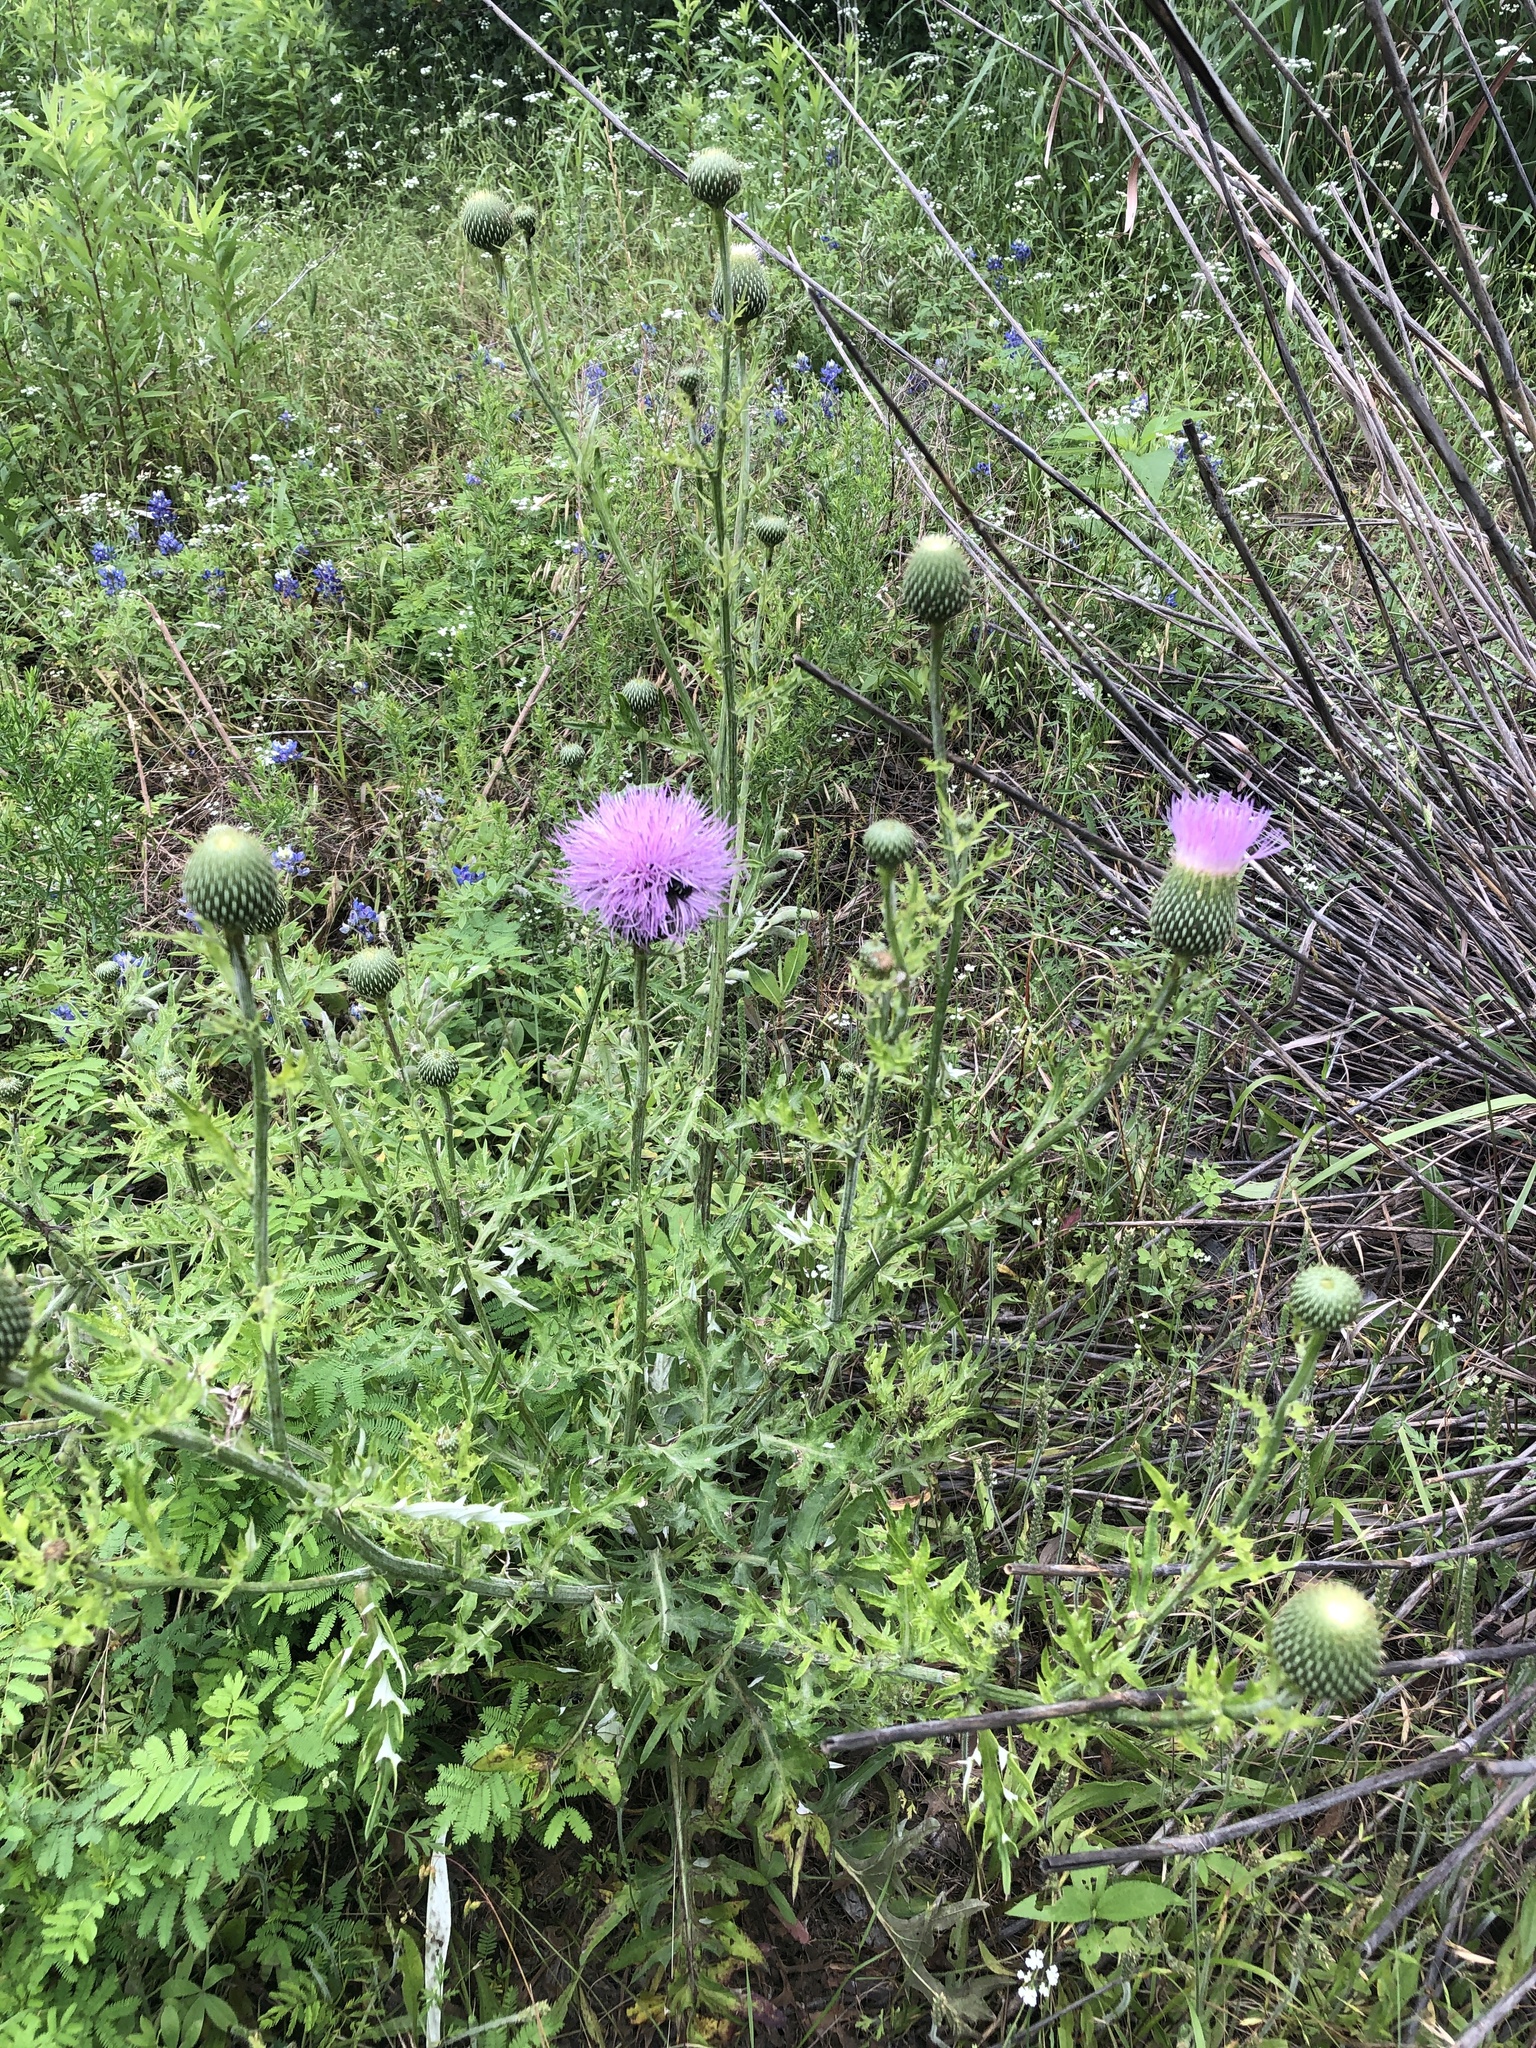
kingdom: Plantae
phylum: Tracheophyta
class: Magnoliopsida
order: Asterales
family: Asteraceae
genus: Cirsium
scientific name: Cirsium engelmannii
